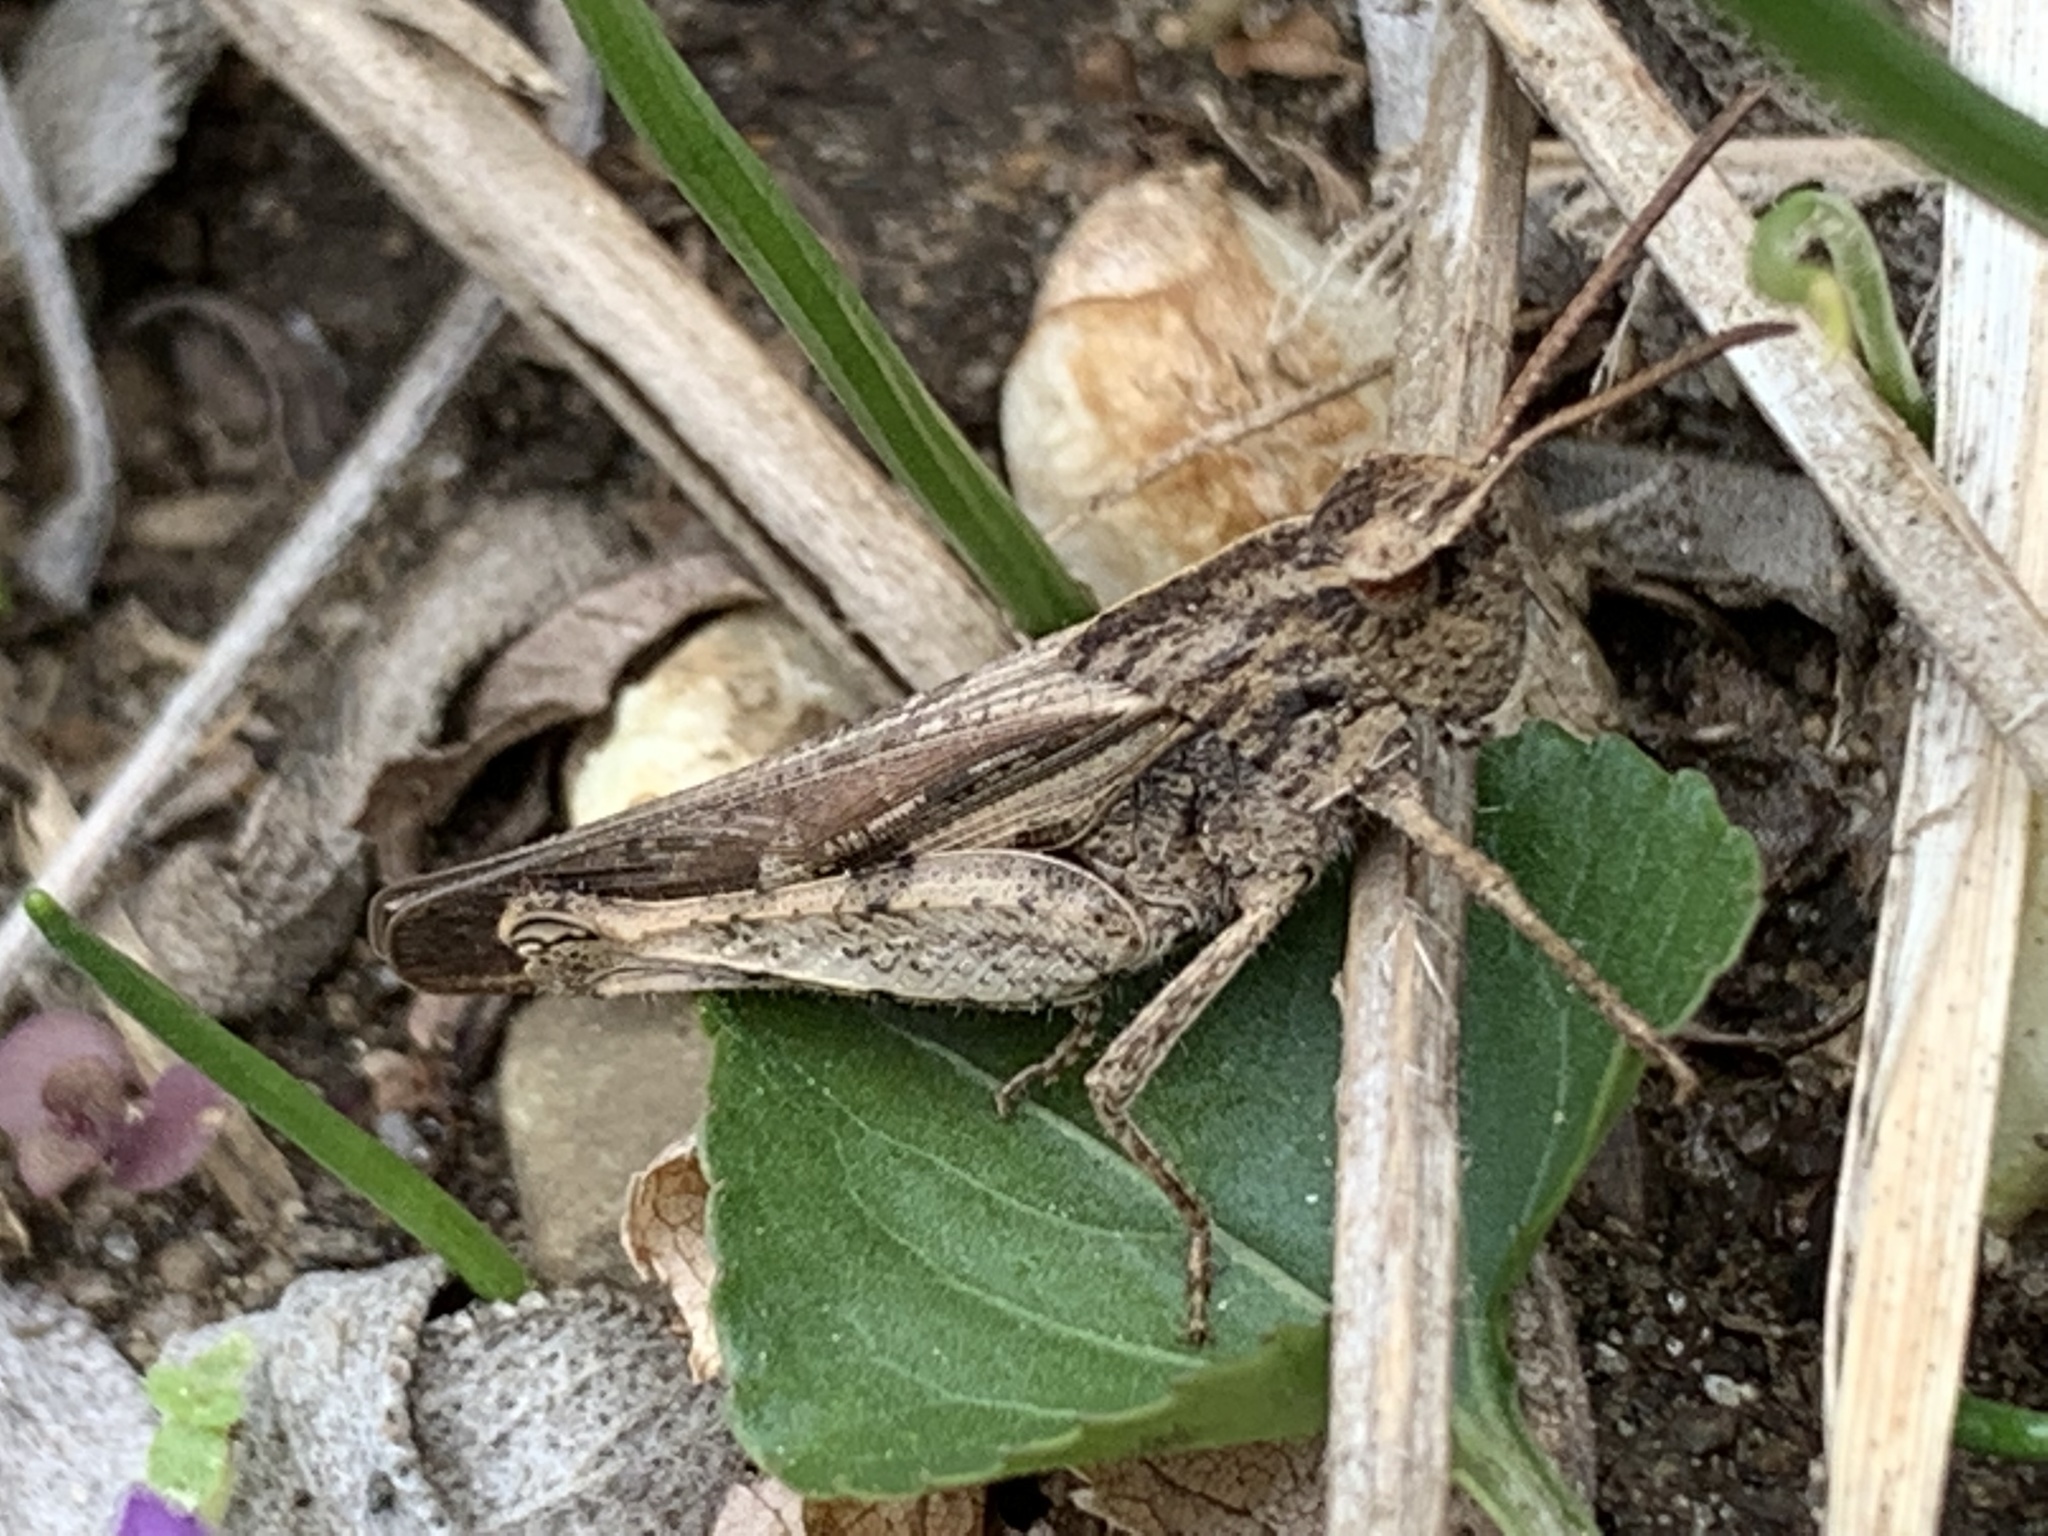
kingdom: Animalia
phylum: Arthropoda
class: Insecta
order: Orthoptera
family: Acrididae
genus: Chortophaga
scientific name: Chortophaga viridifasciata
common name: Green-striped grasshopper
